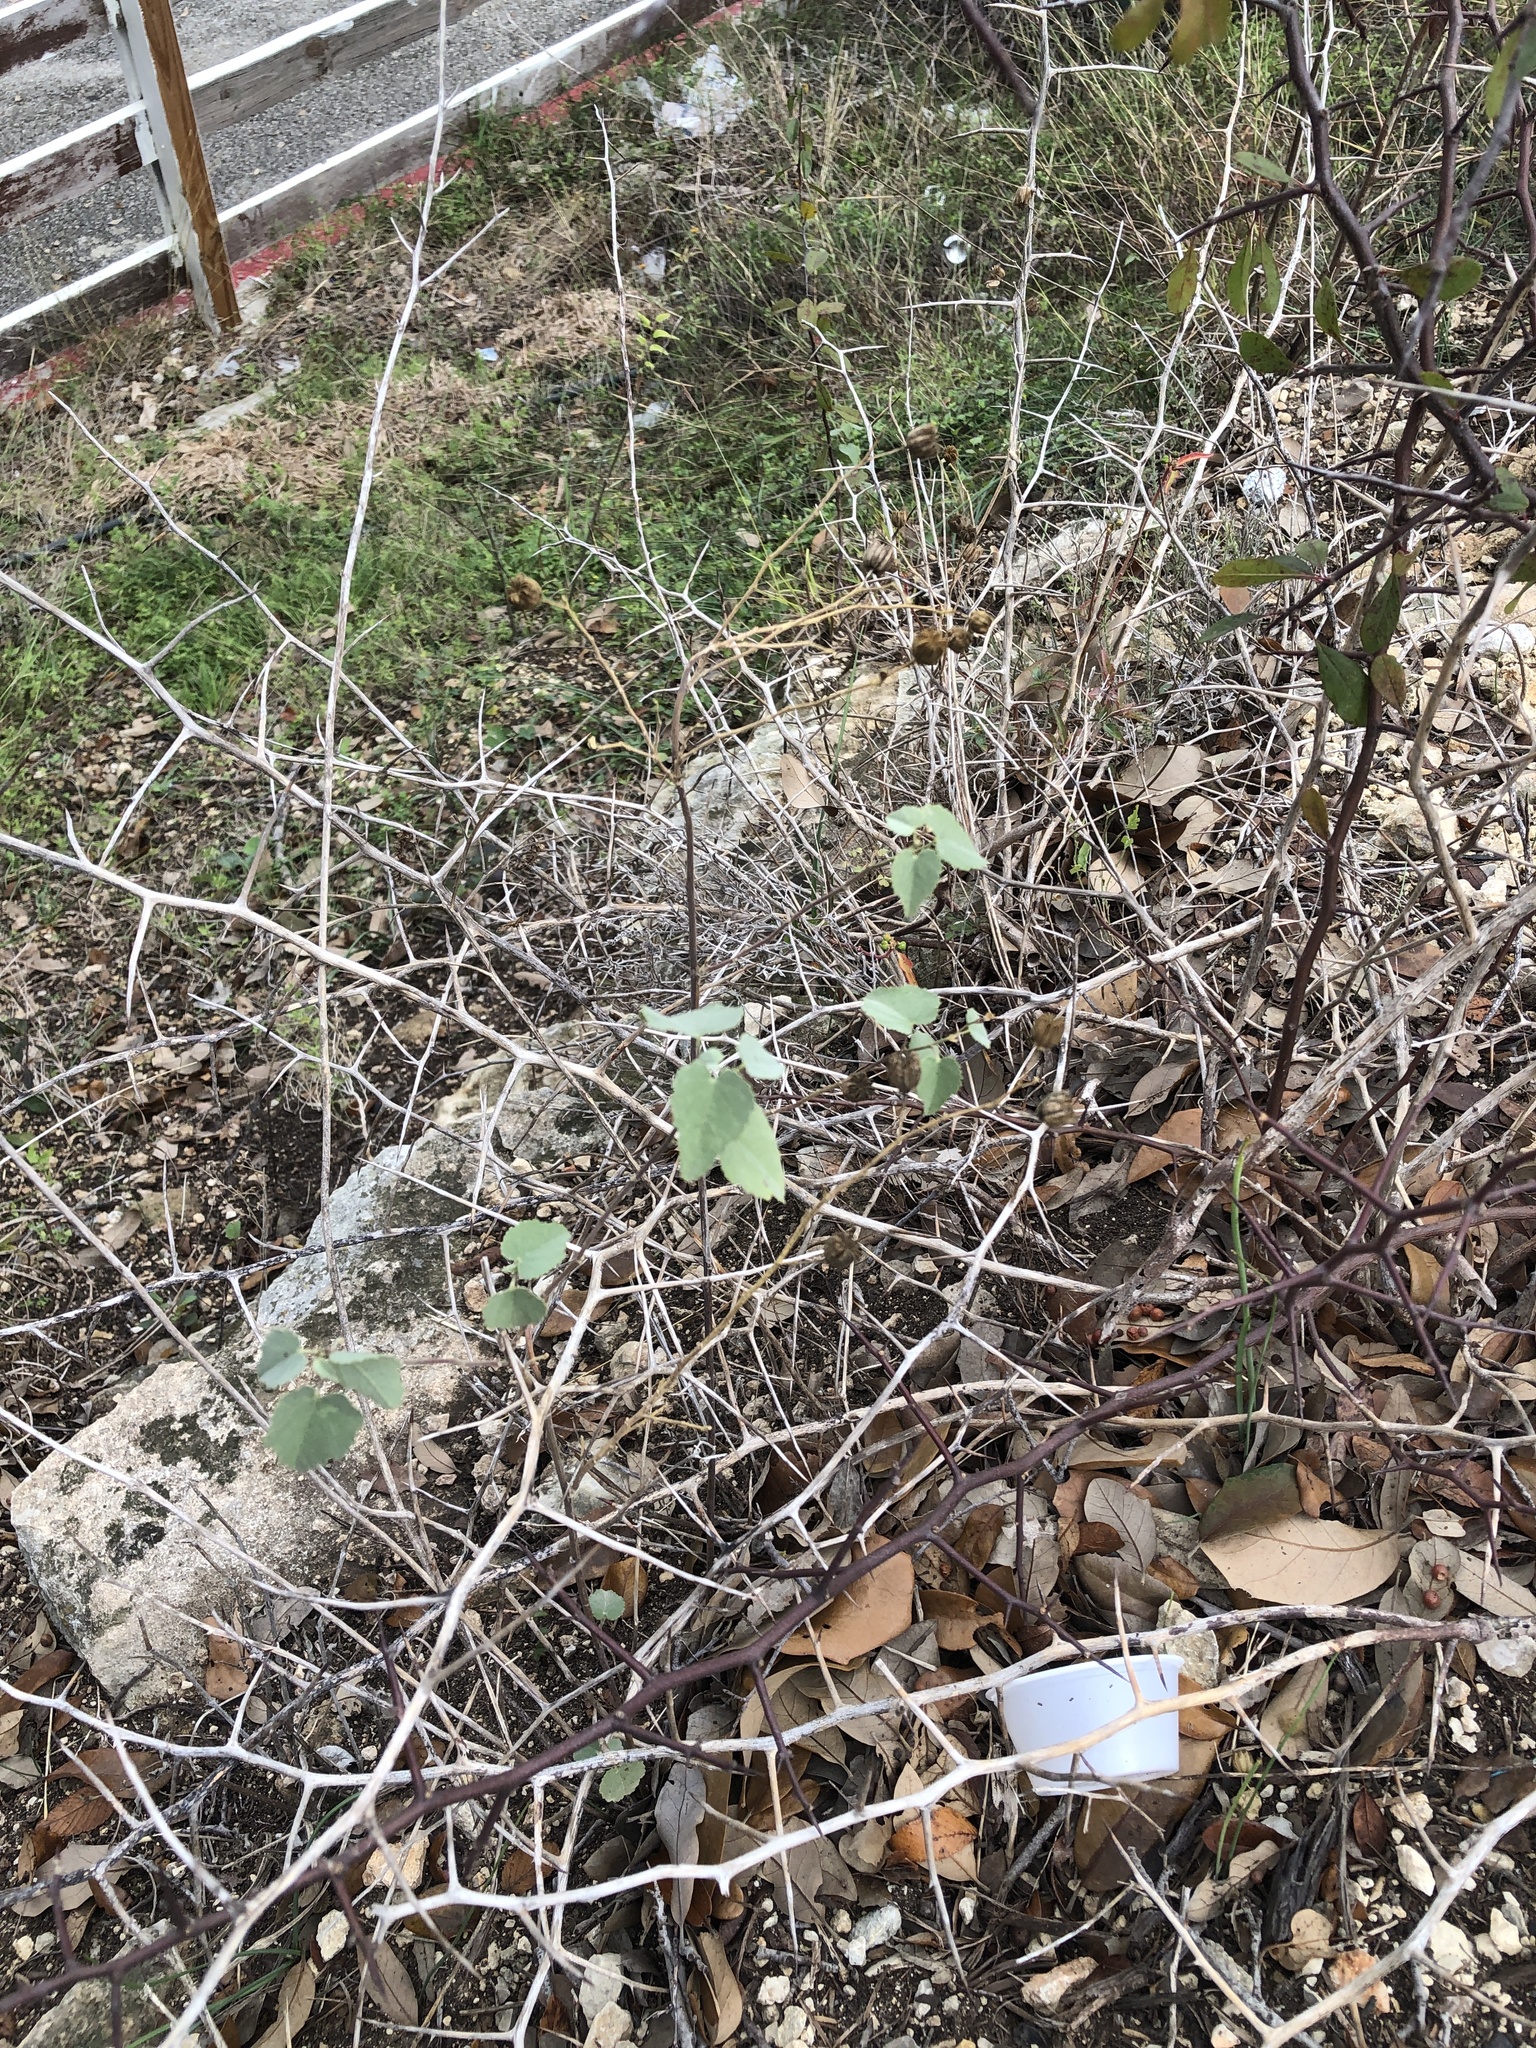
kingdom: Plantae
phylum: Tracheophyta
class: Magnoliopsida
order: Malvales
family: Malvaceae
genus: Abutilon
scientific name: Abutilon fruticosum
